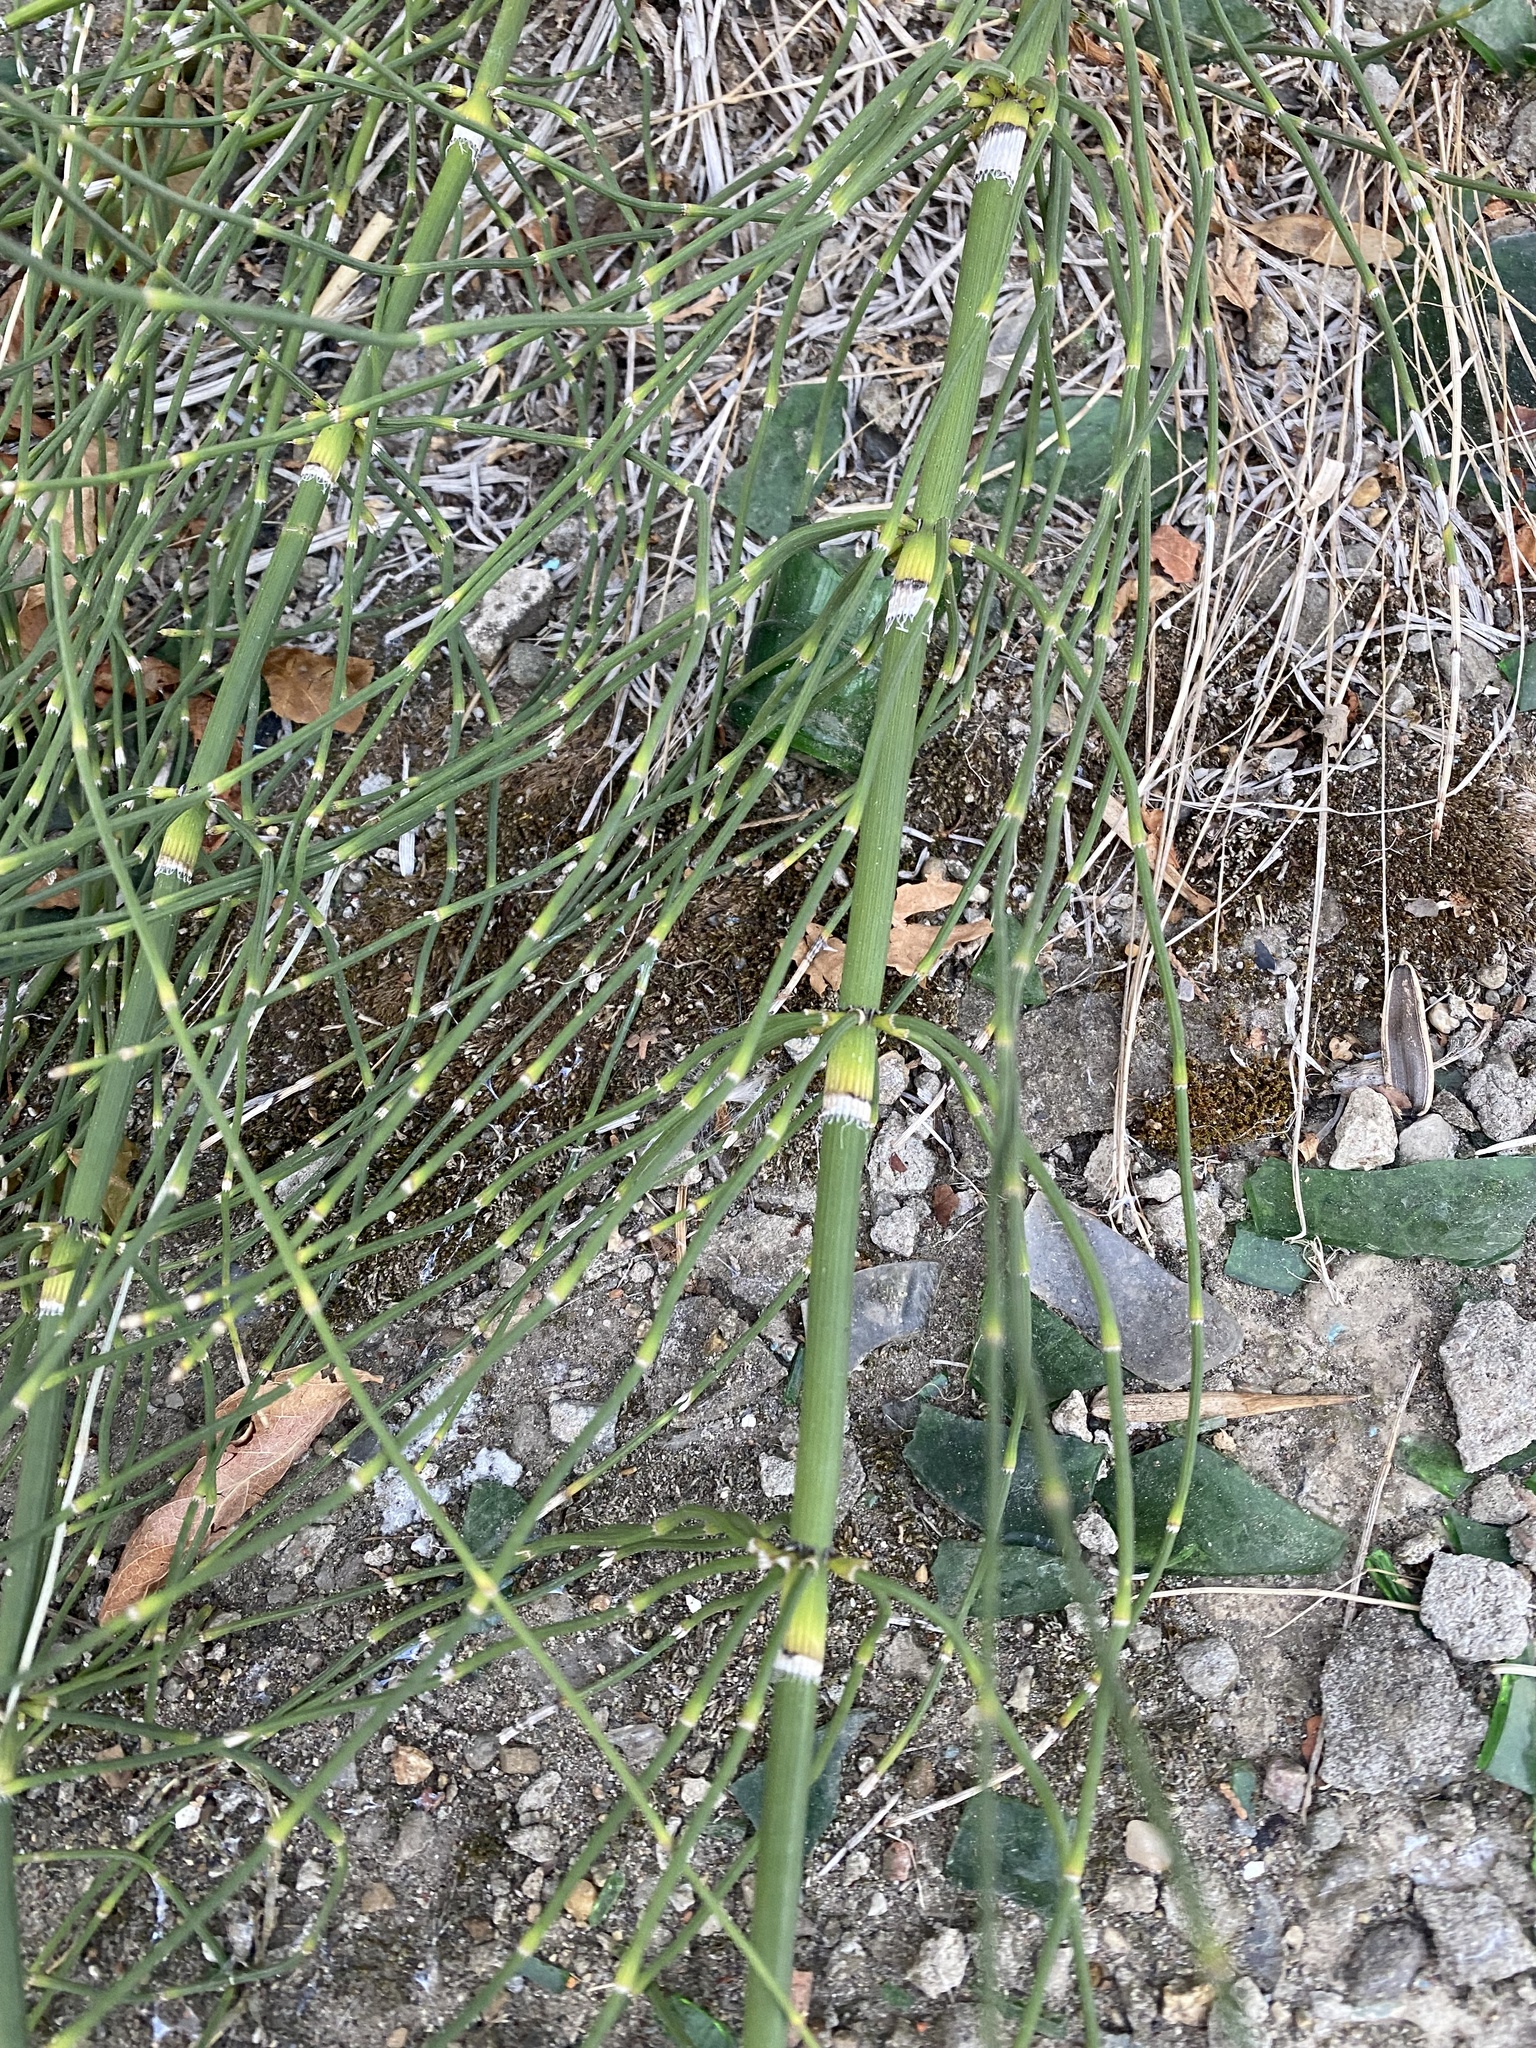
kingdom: Plantae
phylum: Tracheophyta
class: Polypodiopsida
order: Equisetales
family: Equisetaceae
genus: Equisetum
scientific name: Equisetum ramosissimum
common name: Branched horsetail
